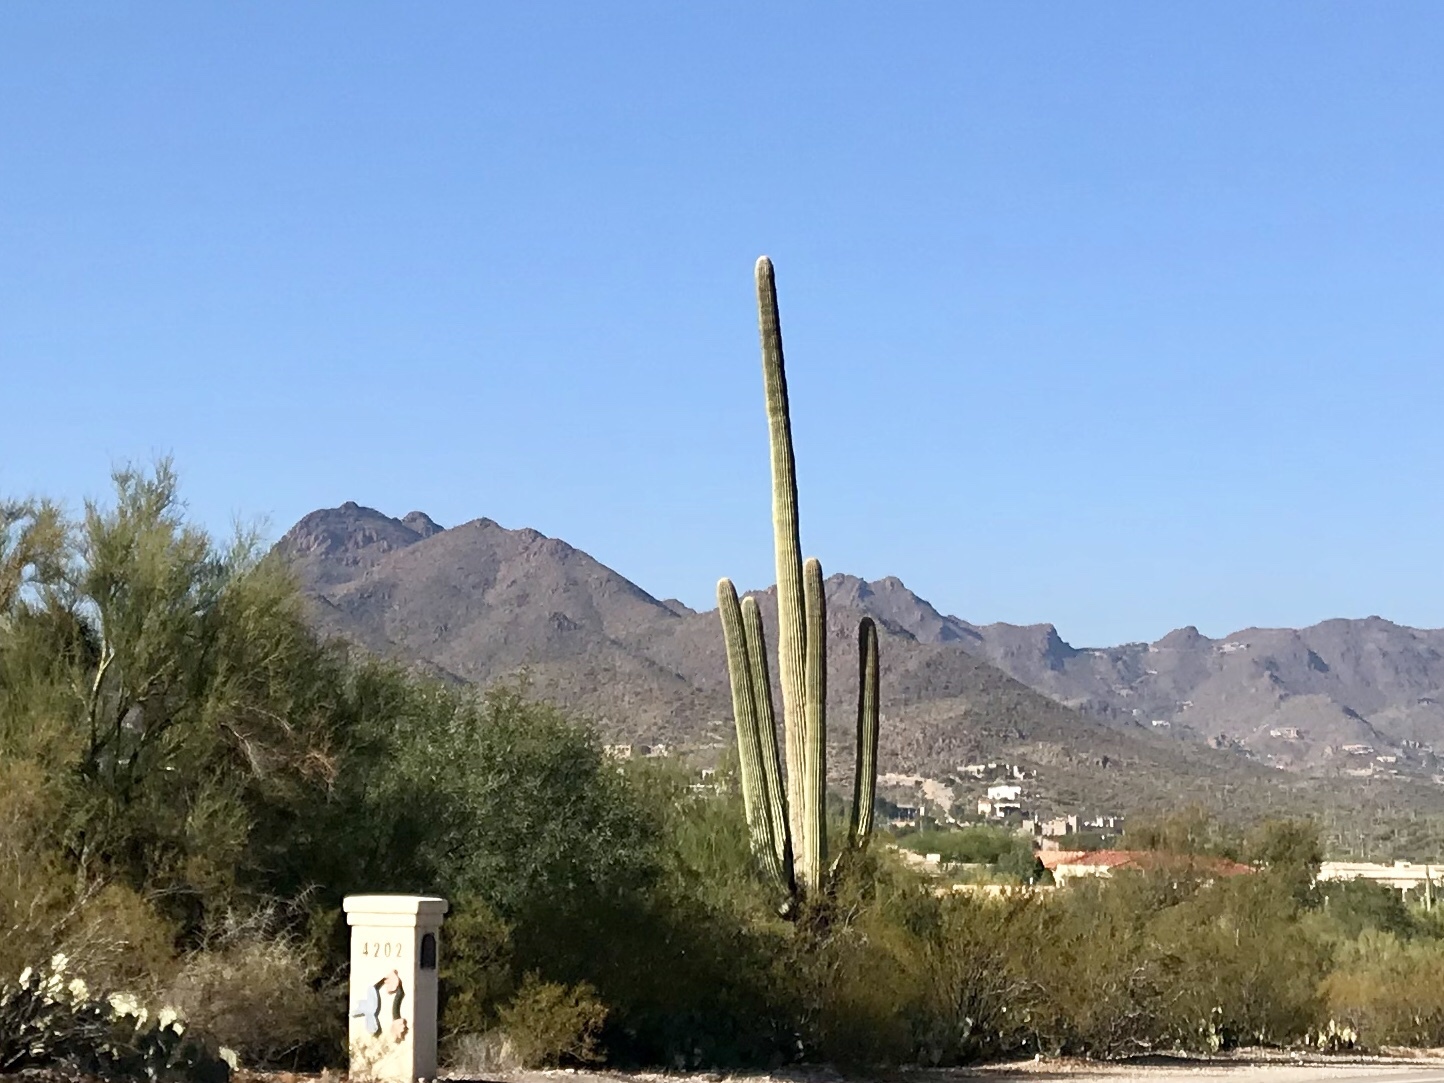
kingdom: Plantae
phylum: Tracheophyta
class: Magnoliopsida
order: Caryophyllales
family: Cactaceae
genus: Carnegiea
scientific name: Carnegiea gigantea
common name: Saguaro
